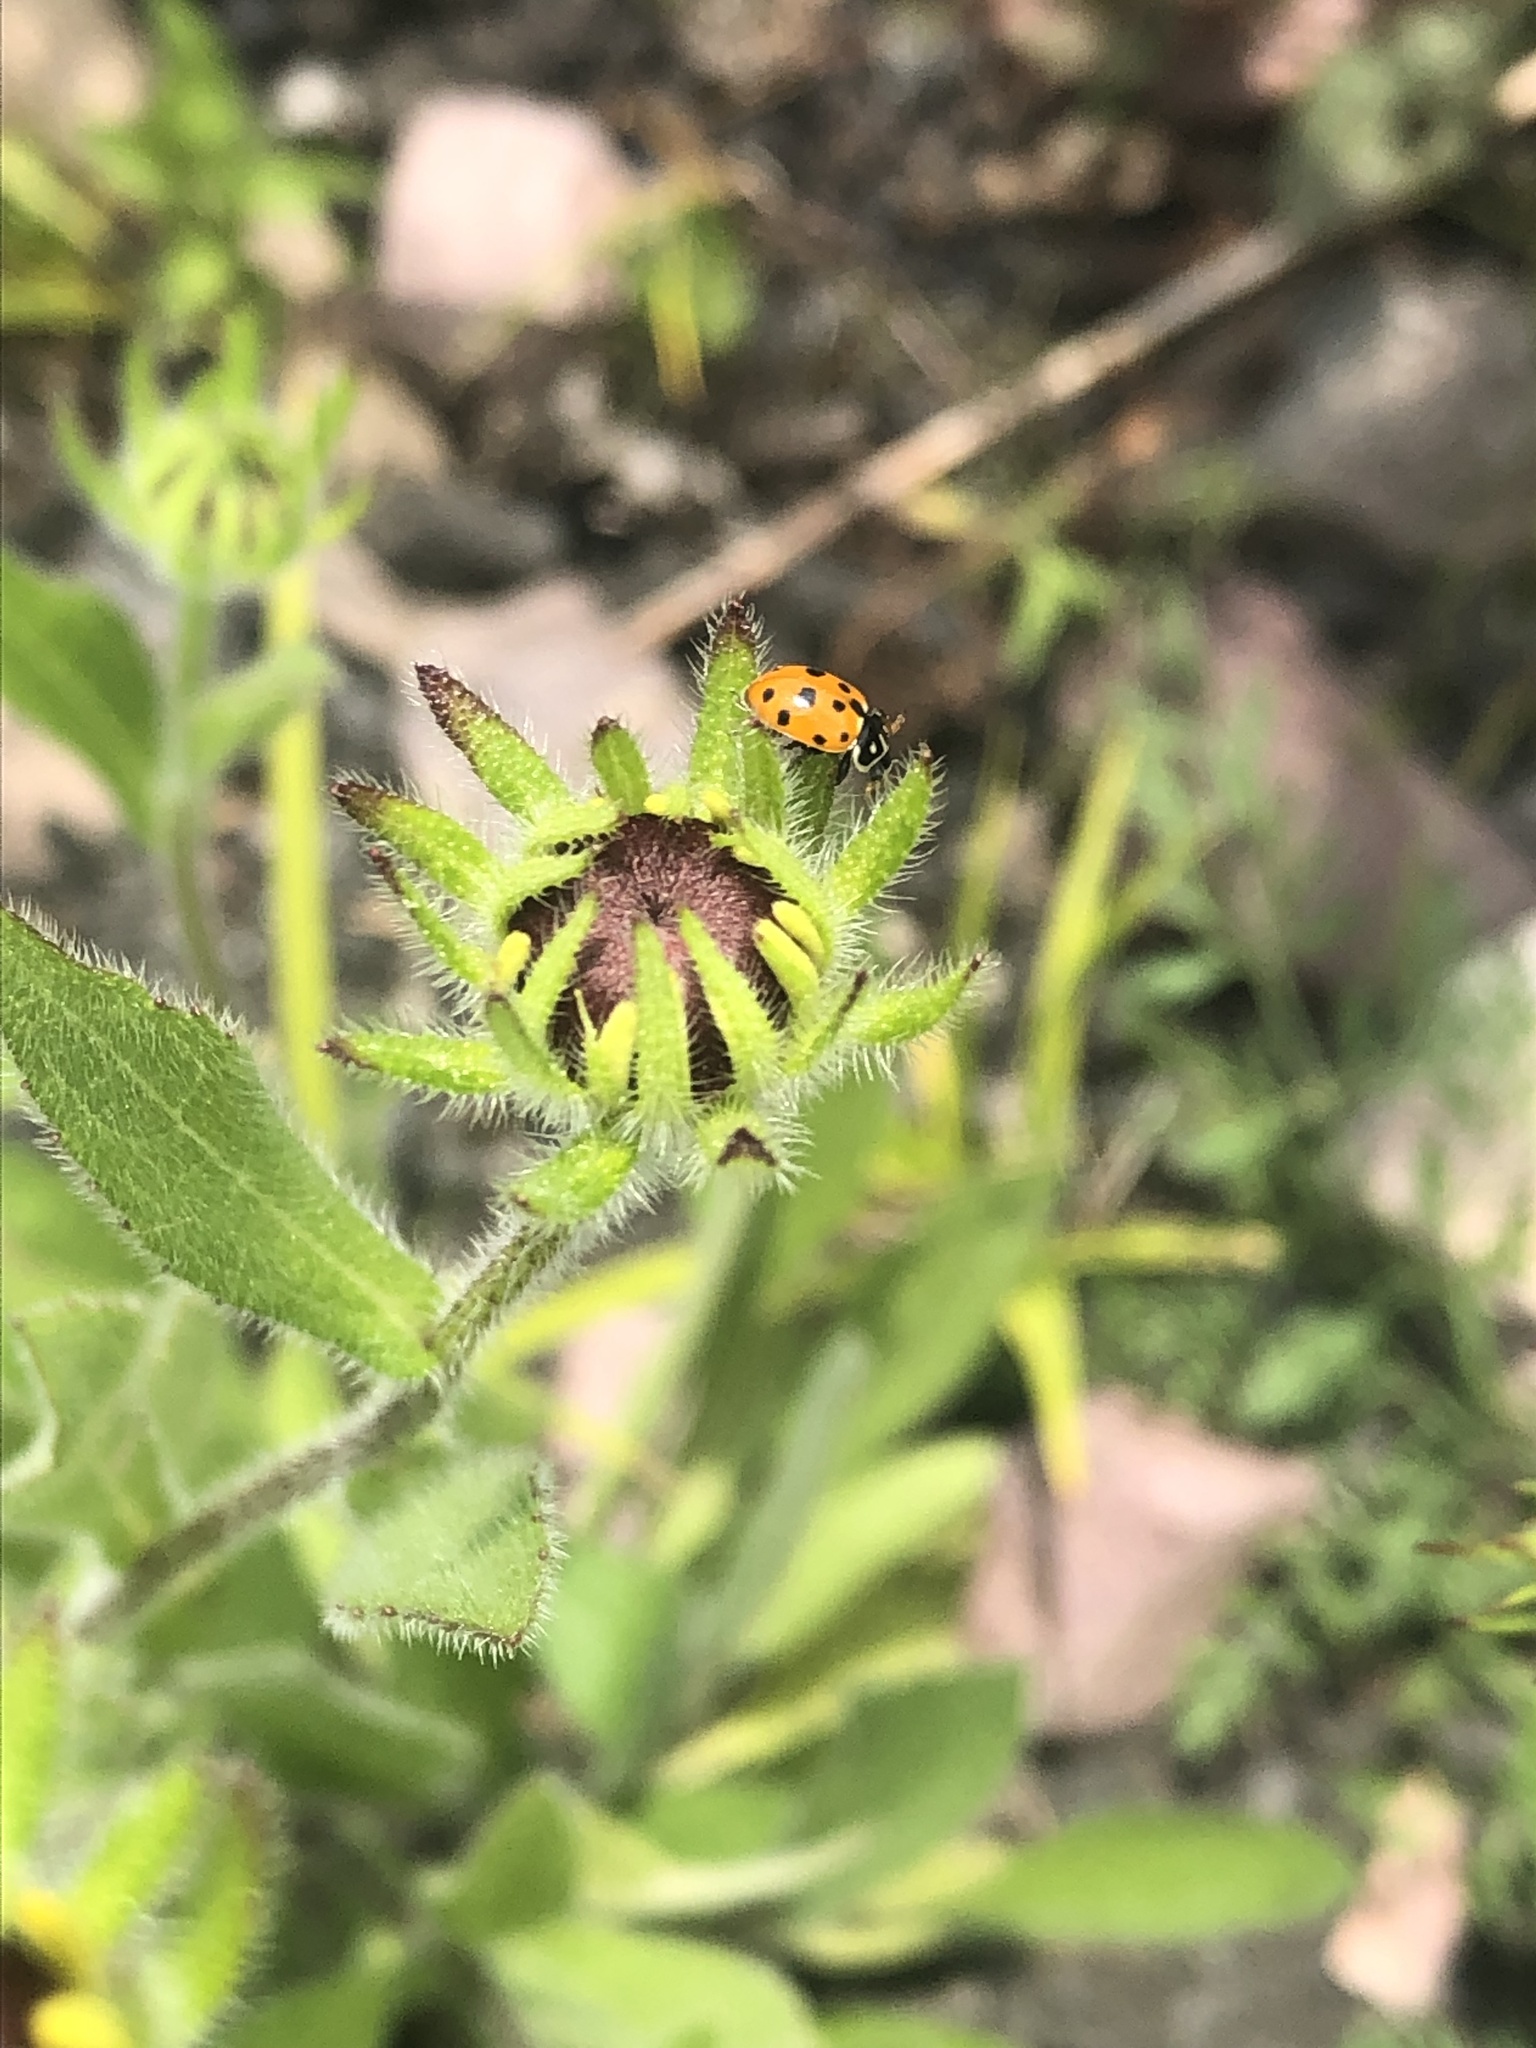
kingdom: Animalia
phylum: Arthropoda
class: Insecta
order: Coleoptera
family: Coccinellidae
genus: Hippodamia
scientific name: Hippodamia variegata
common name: Ladybird beetle
